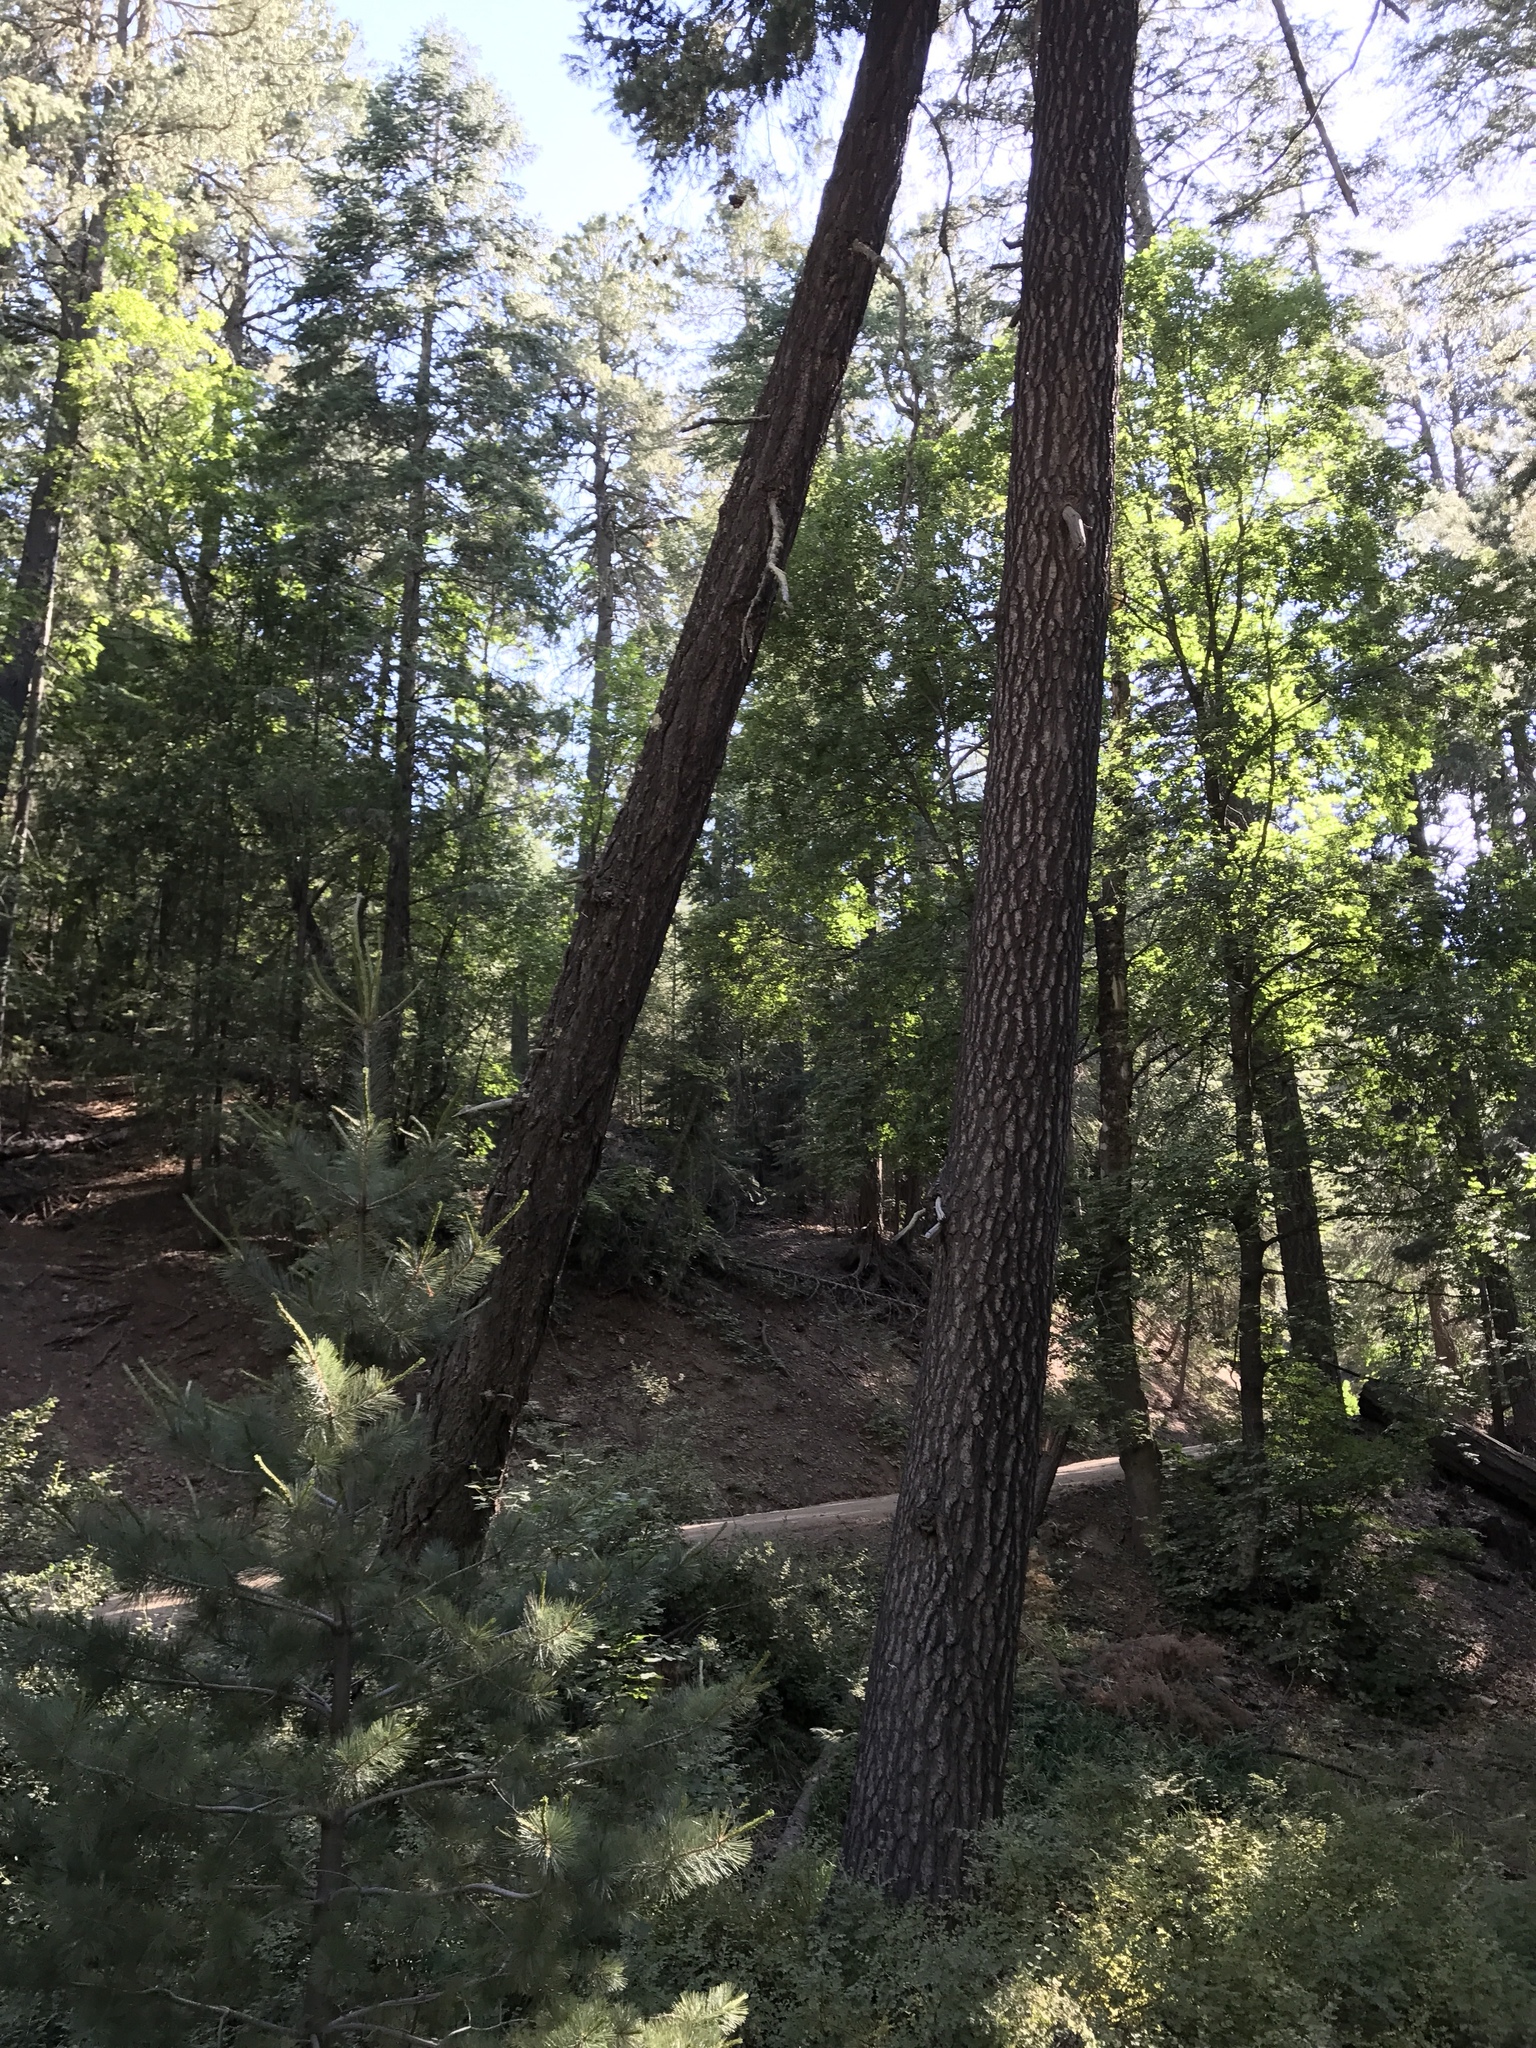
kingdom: Plantae
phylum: Tracheophyta
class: Pinopsida
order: Pinales
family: Pinaceae
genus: Pinus
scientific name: Pinus strobiformis
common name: Southwestern white pine
